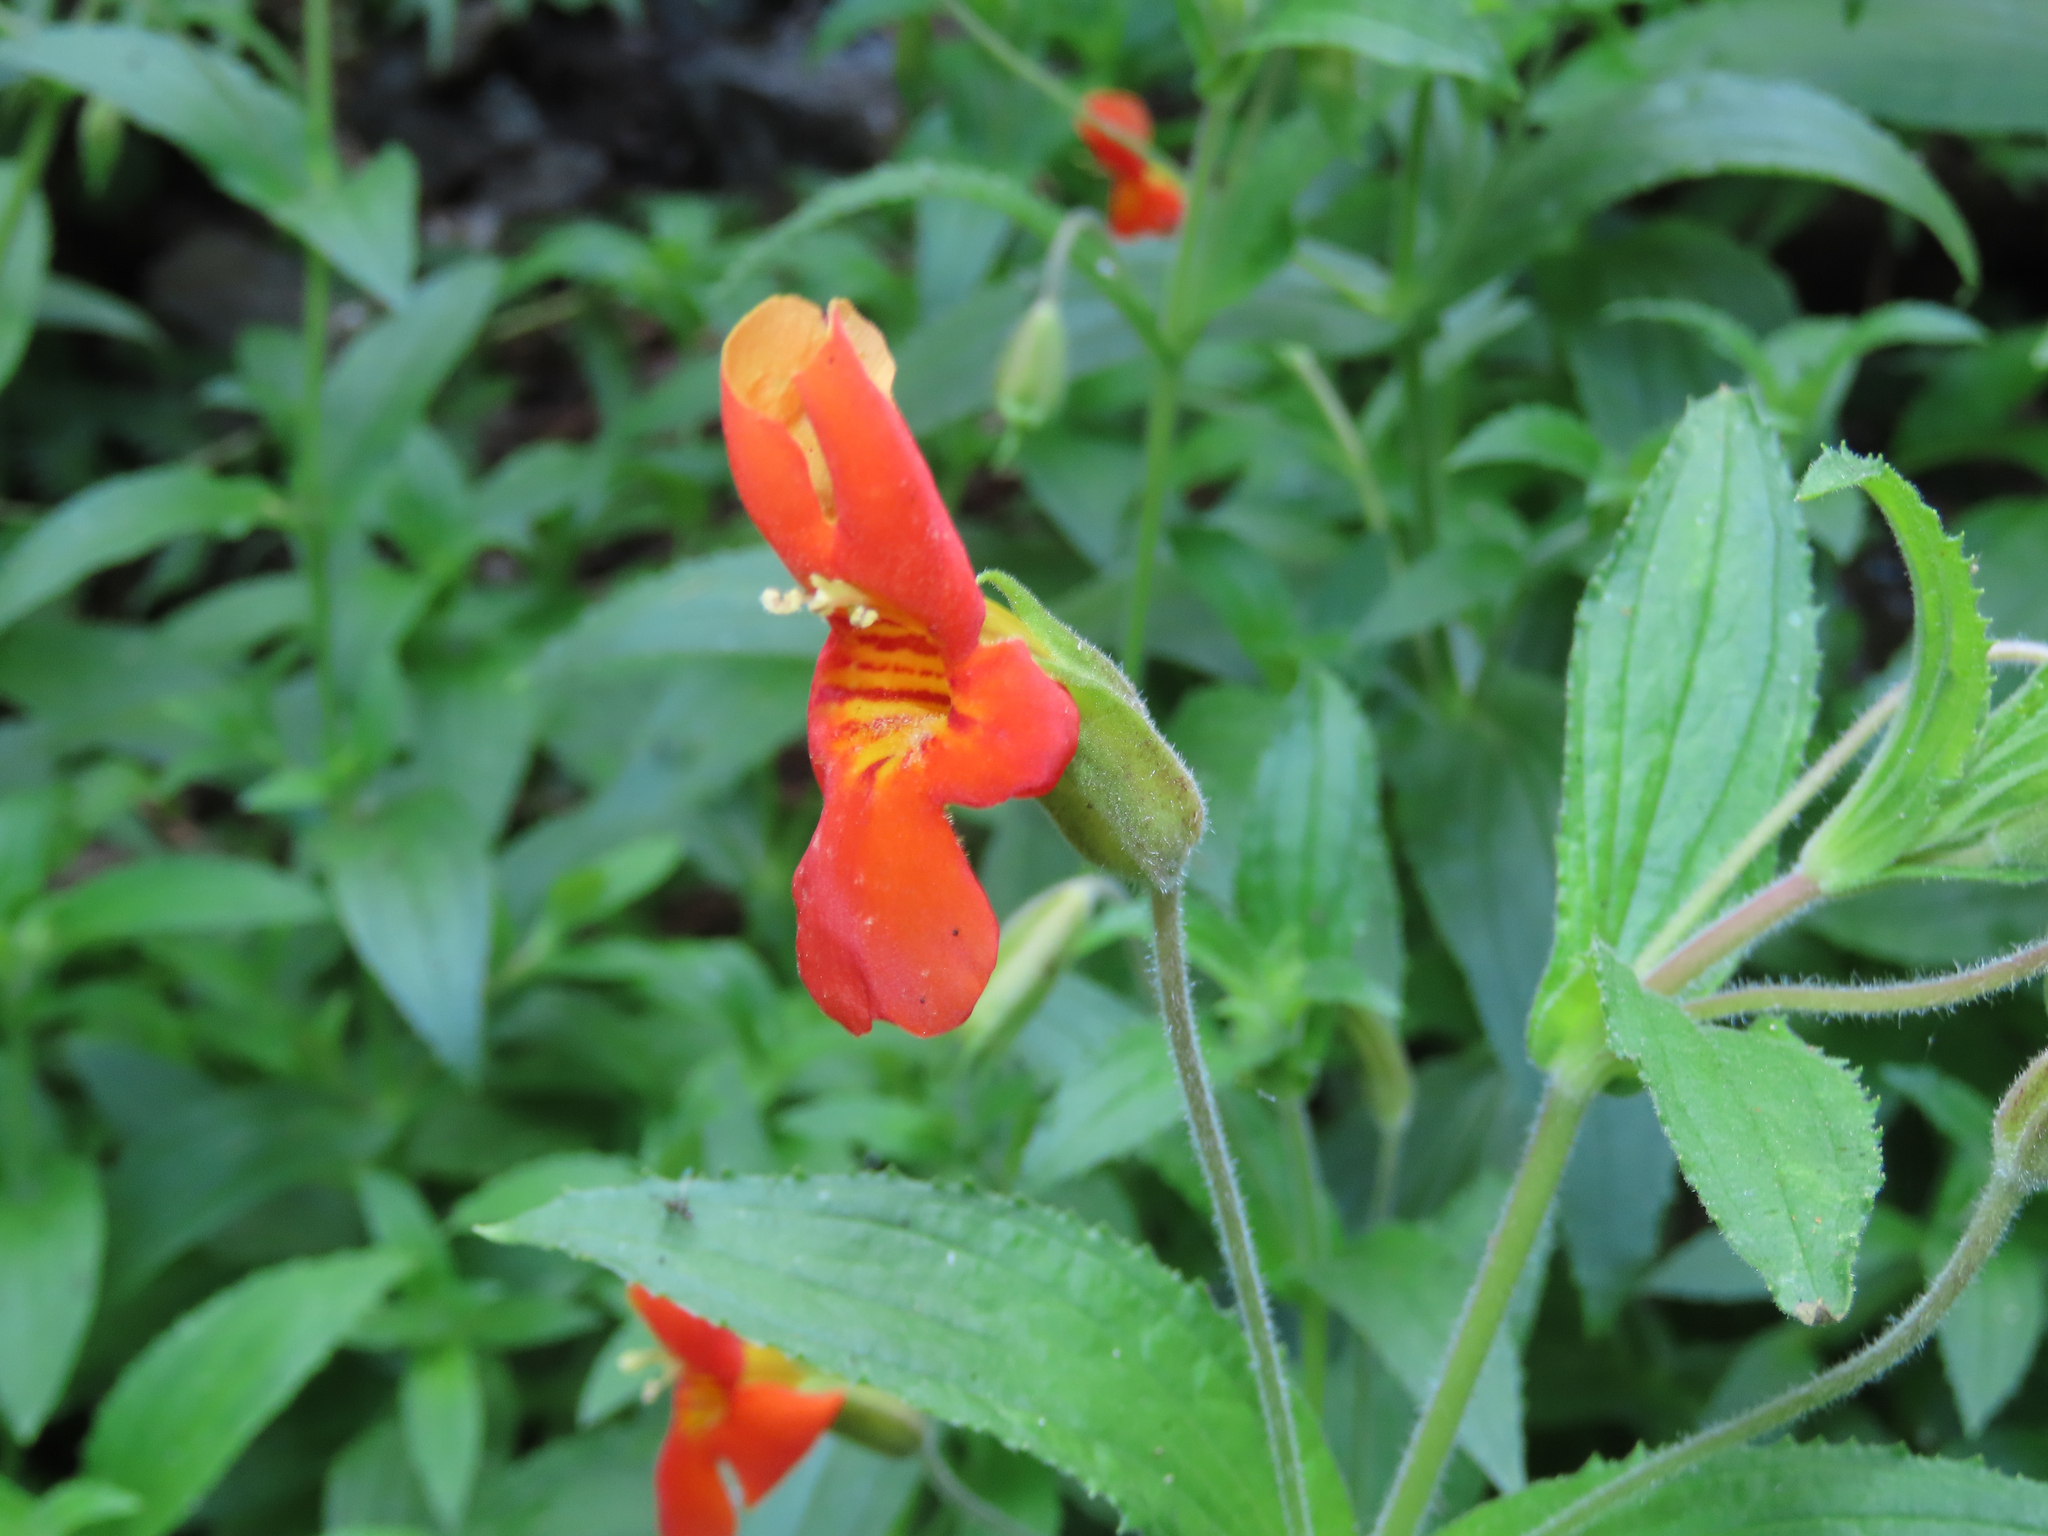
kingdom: Plantae
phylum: Tracheophyta
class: Magnoliopsida
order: Lamiales
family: Phrymaceae
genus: Erythranthe
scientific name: Erythranthe cinnabarina
